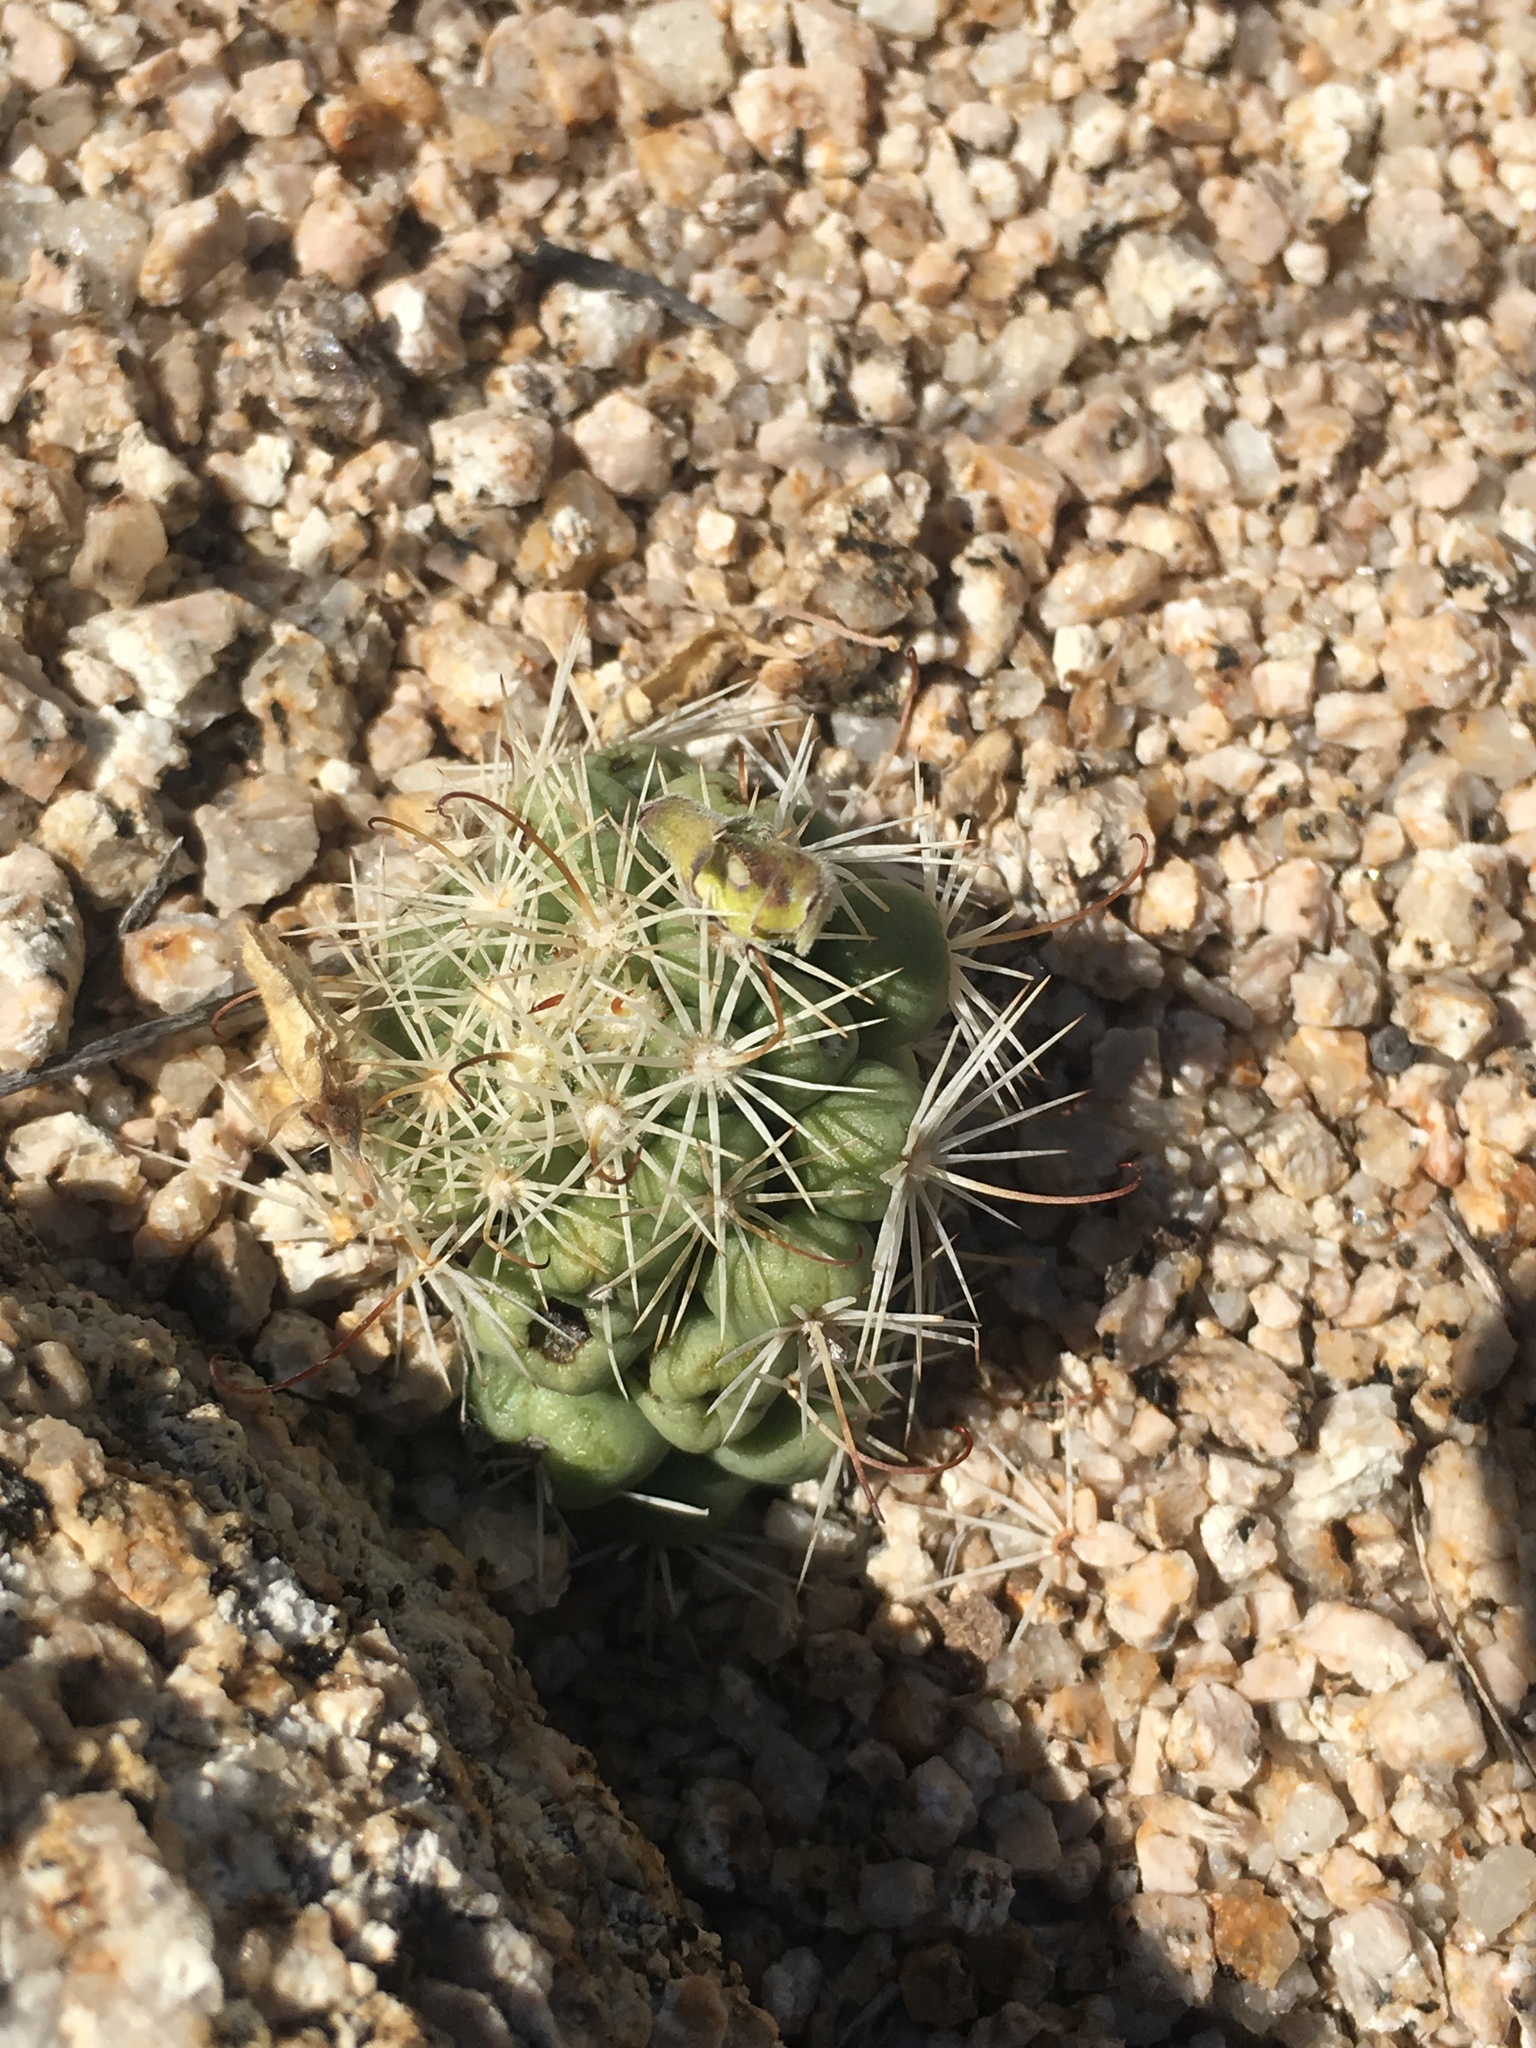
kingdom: Plantae
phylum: Tracheophyta
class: Magnoliopsida
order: Caryophyllales
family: Cactaceae
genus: Cochemiea
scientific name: Cochemiea schumannii
